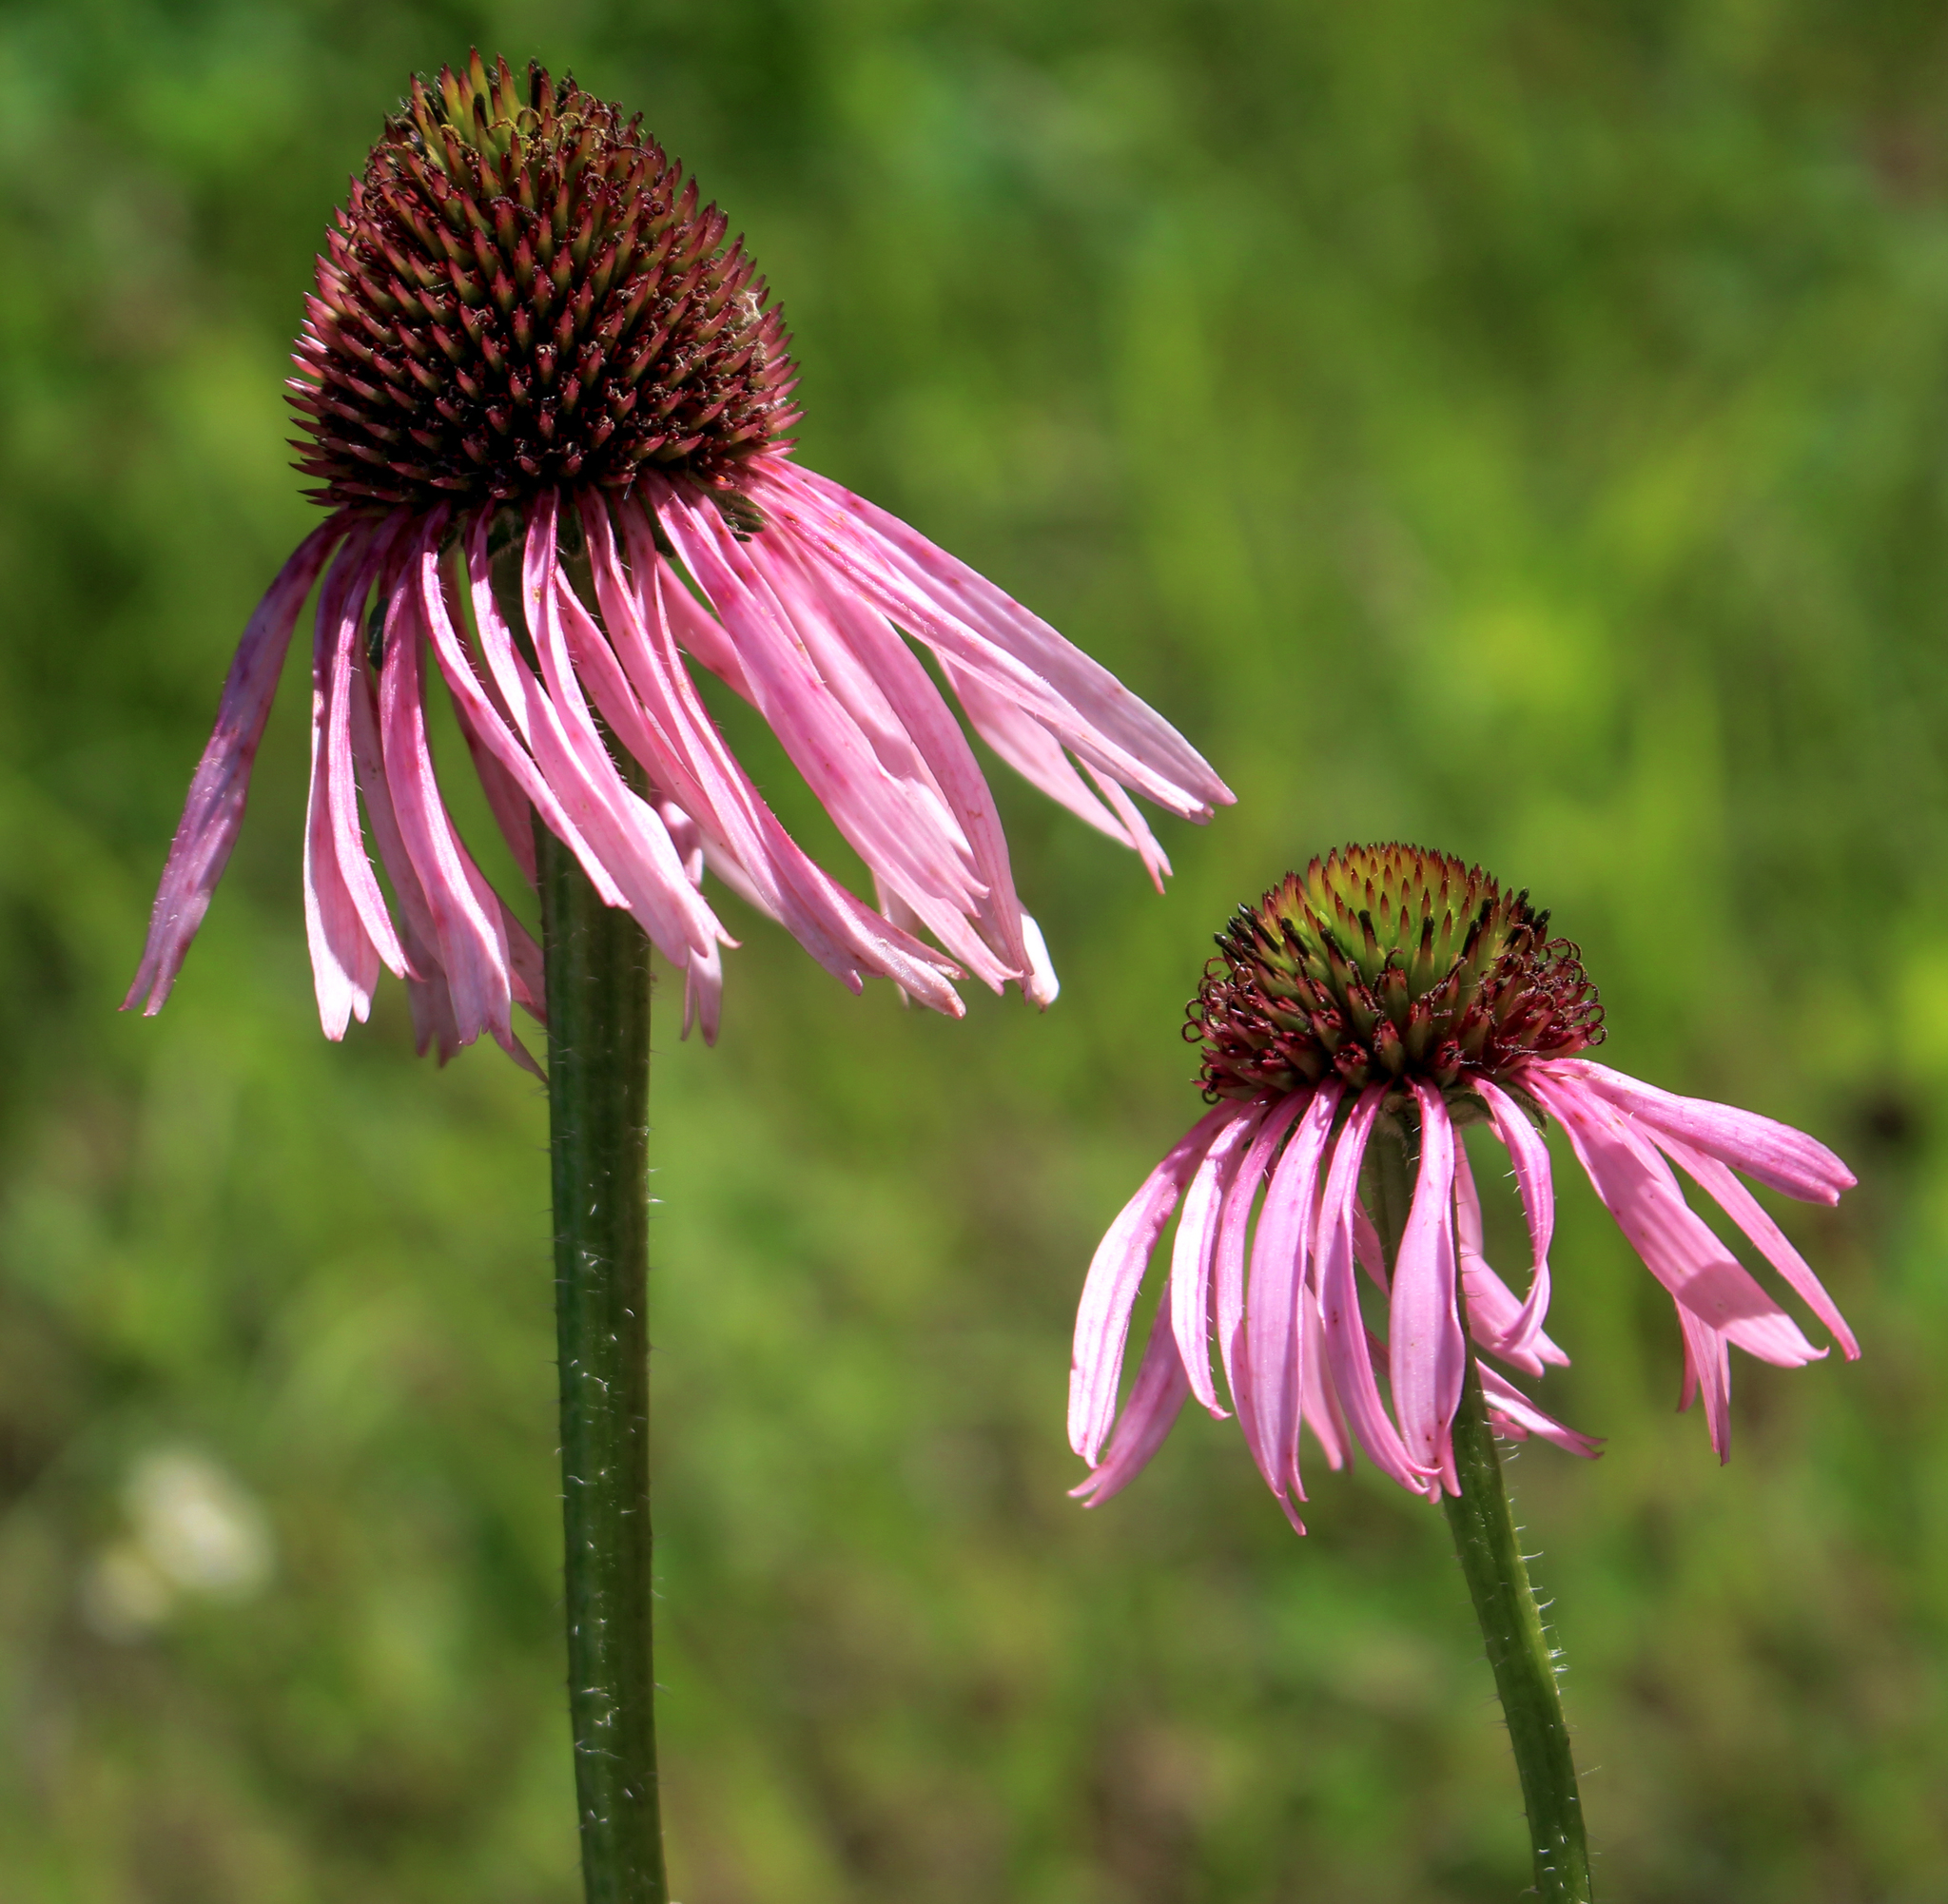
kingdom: Plantae
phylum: Tracheophyta
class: Magnoliopsida
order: Asterales
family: Asteraceae
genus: Echinacea
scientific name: Echinacea pallida
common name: Pale echinacea
